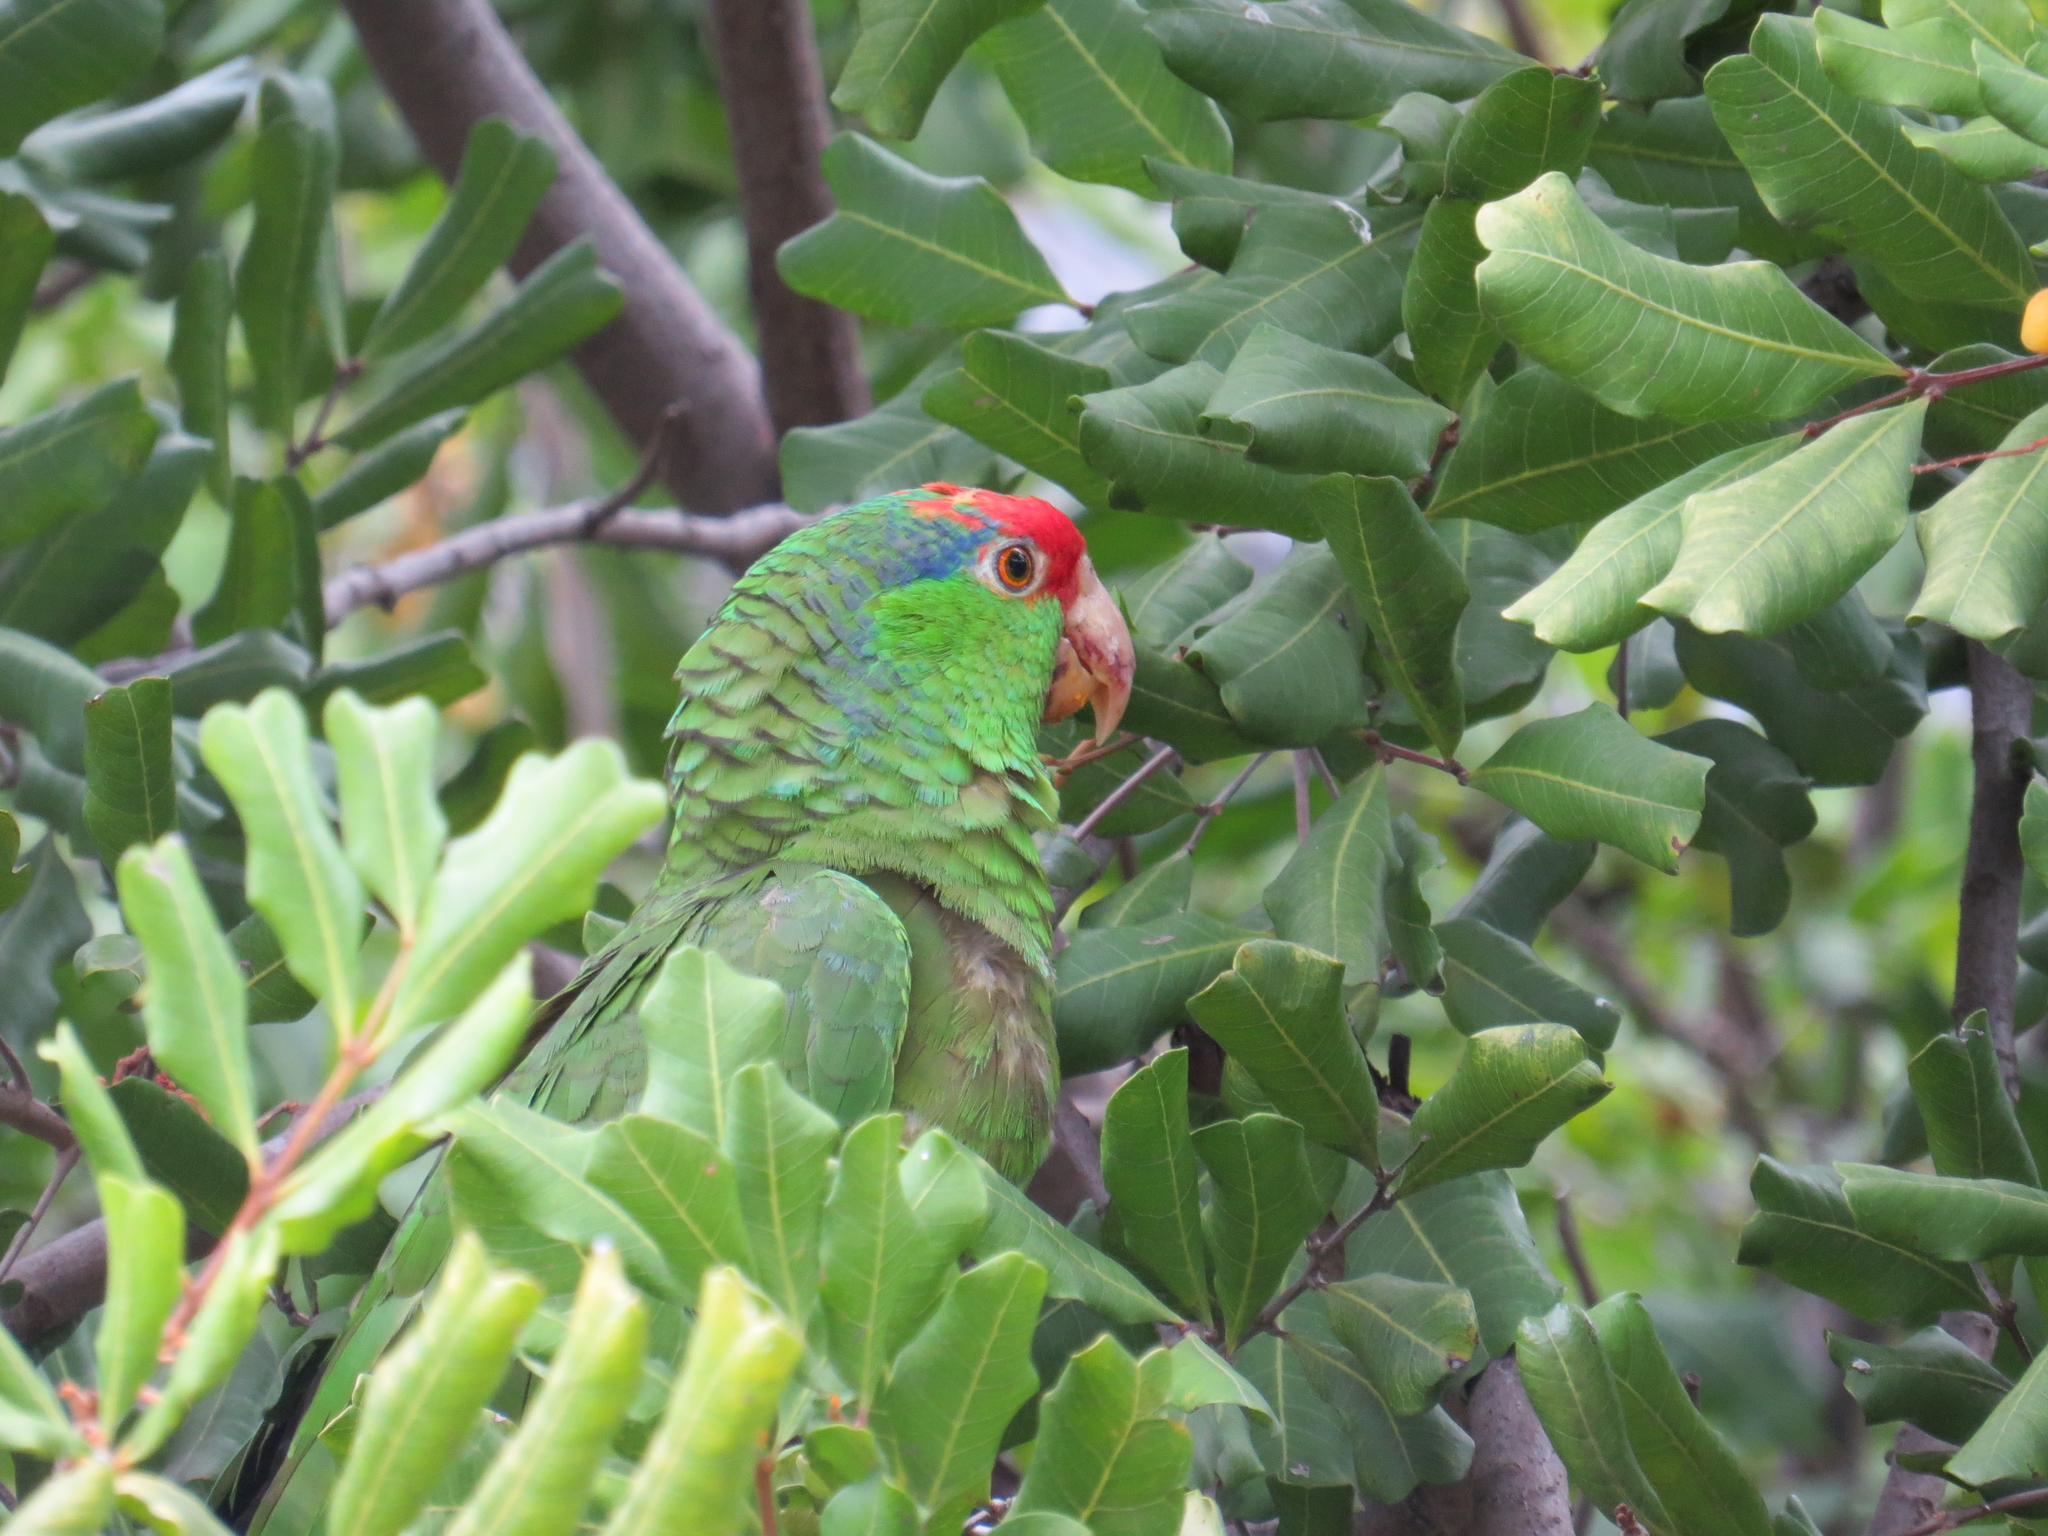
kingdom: Animalia
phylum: Chordata
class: Aves
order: Psittaciformes
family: Psittacidae
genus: Amazona
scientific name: Amazona viridigenalis
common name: Red-crowned amazon
